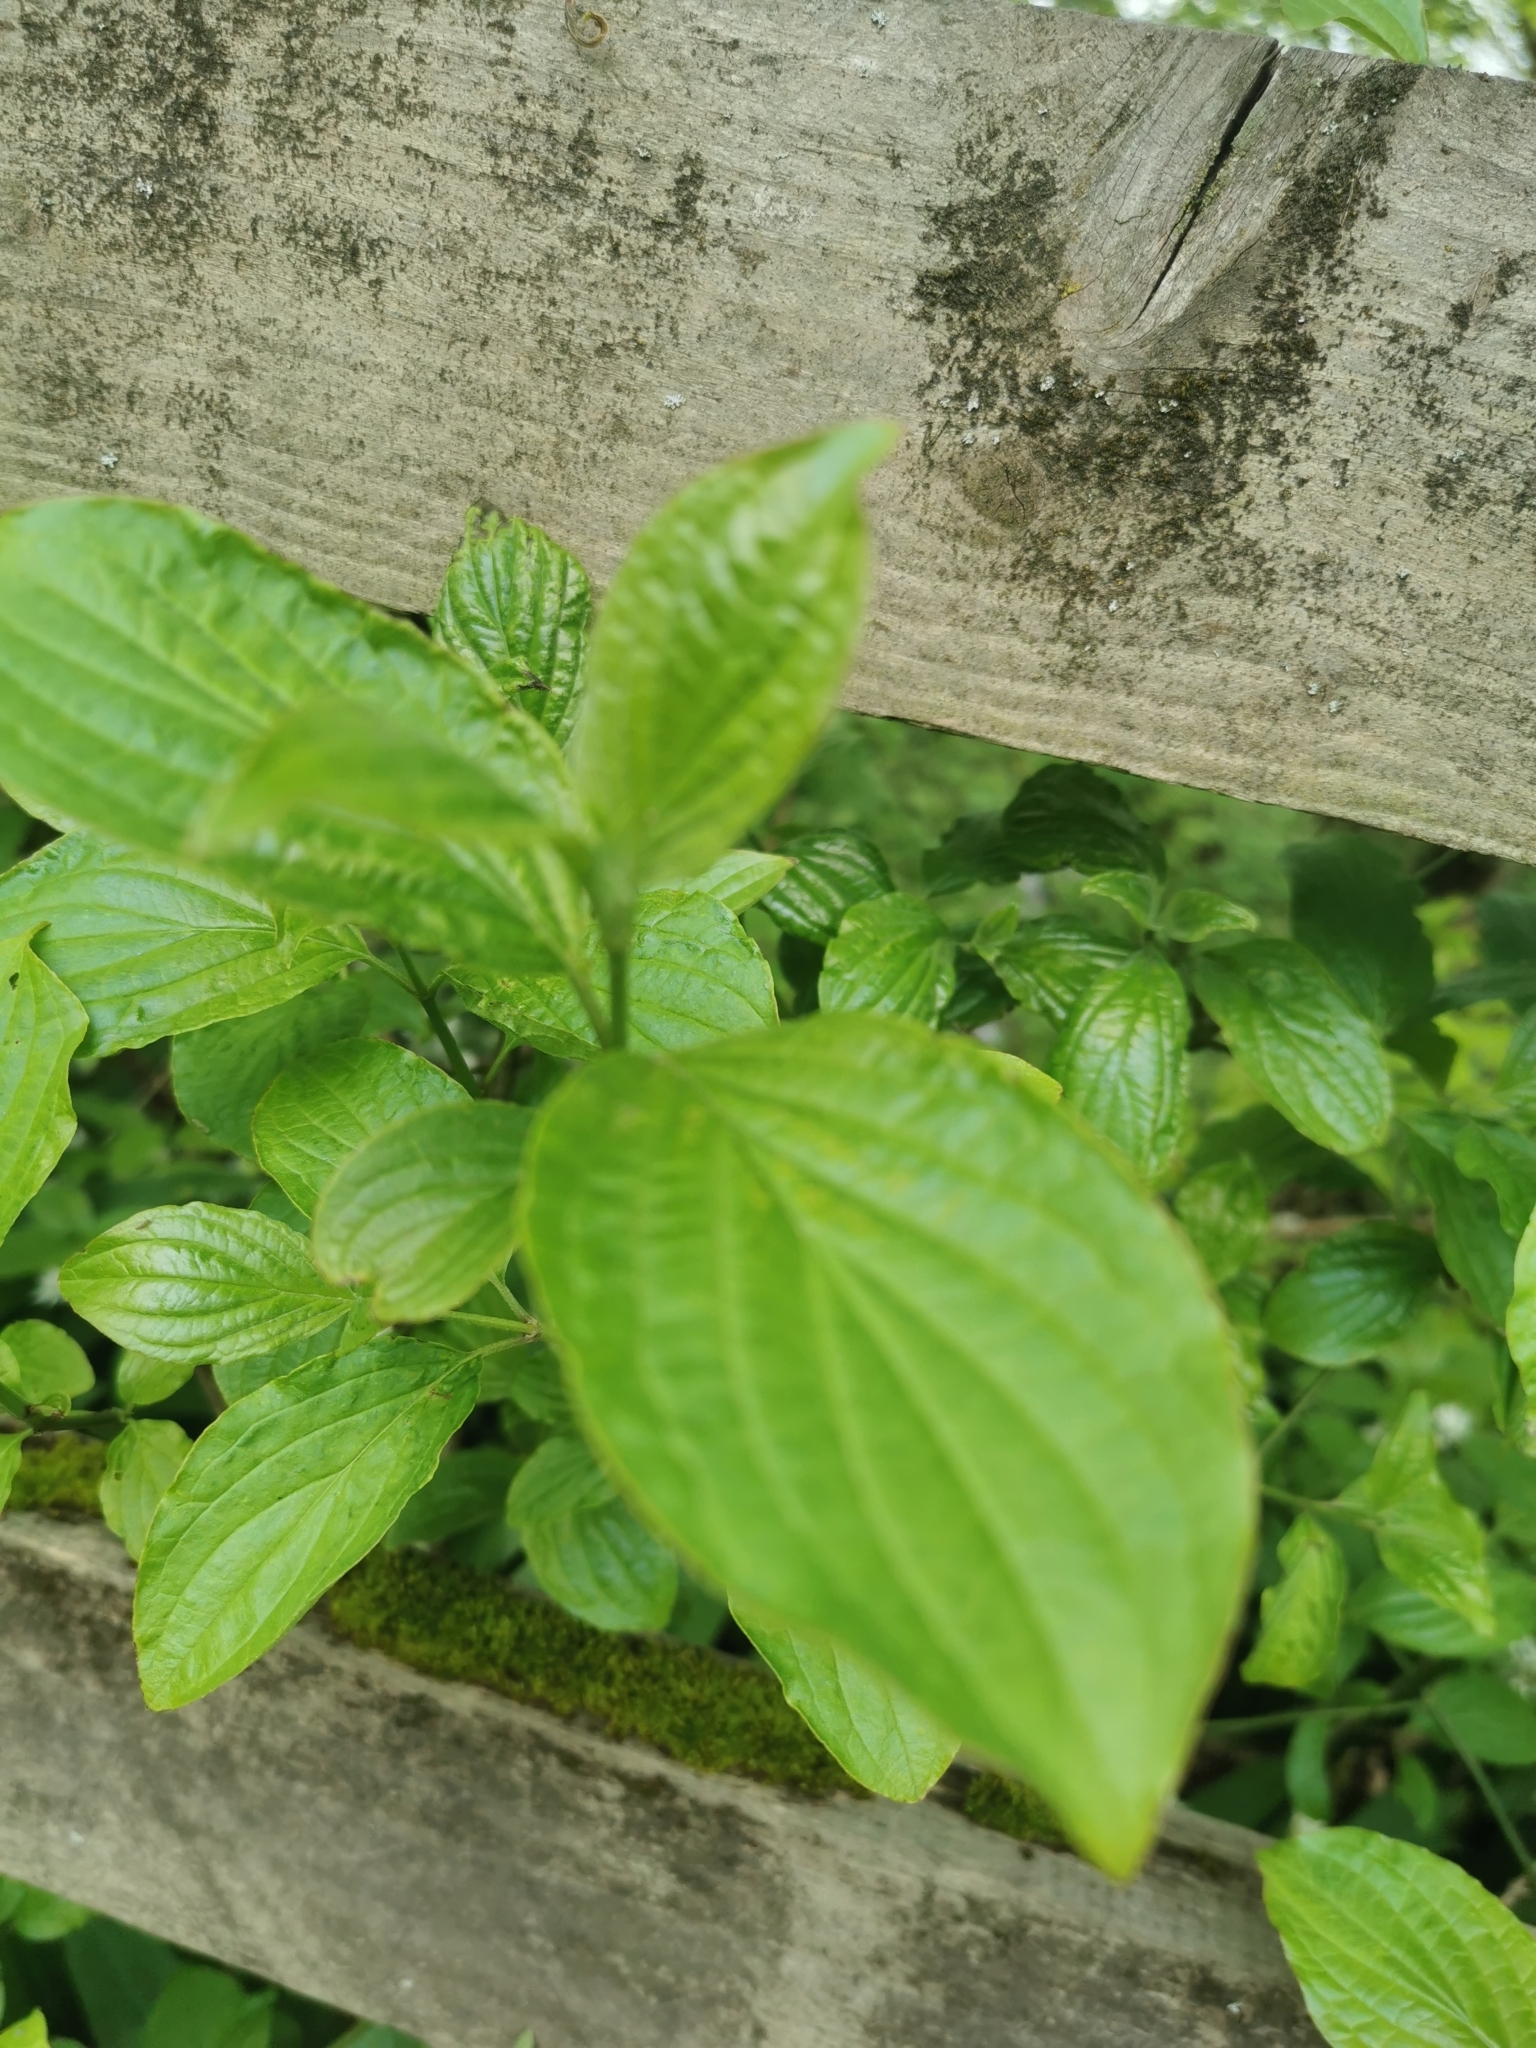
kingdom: Plantae
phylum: Tracheophyta
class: Magnoliopsida
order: Cornales
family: Cornaceae
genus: Cornus
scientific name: Cornus sanguinea
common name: Dogwood
